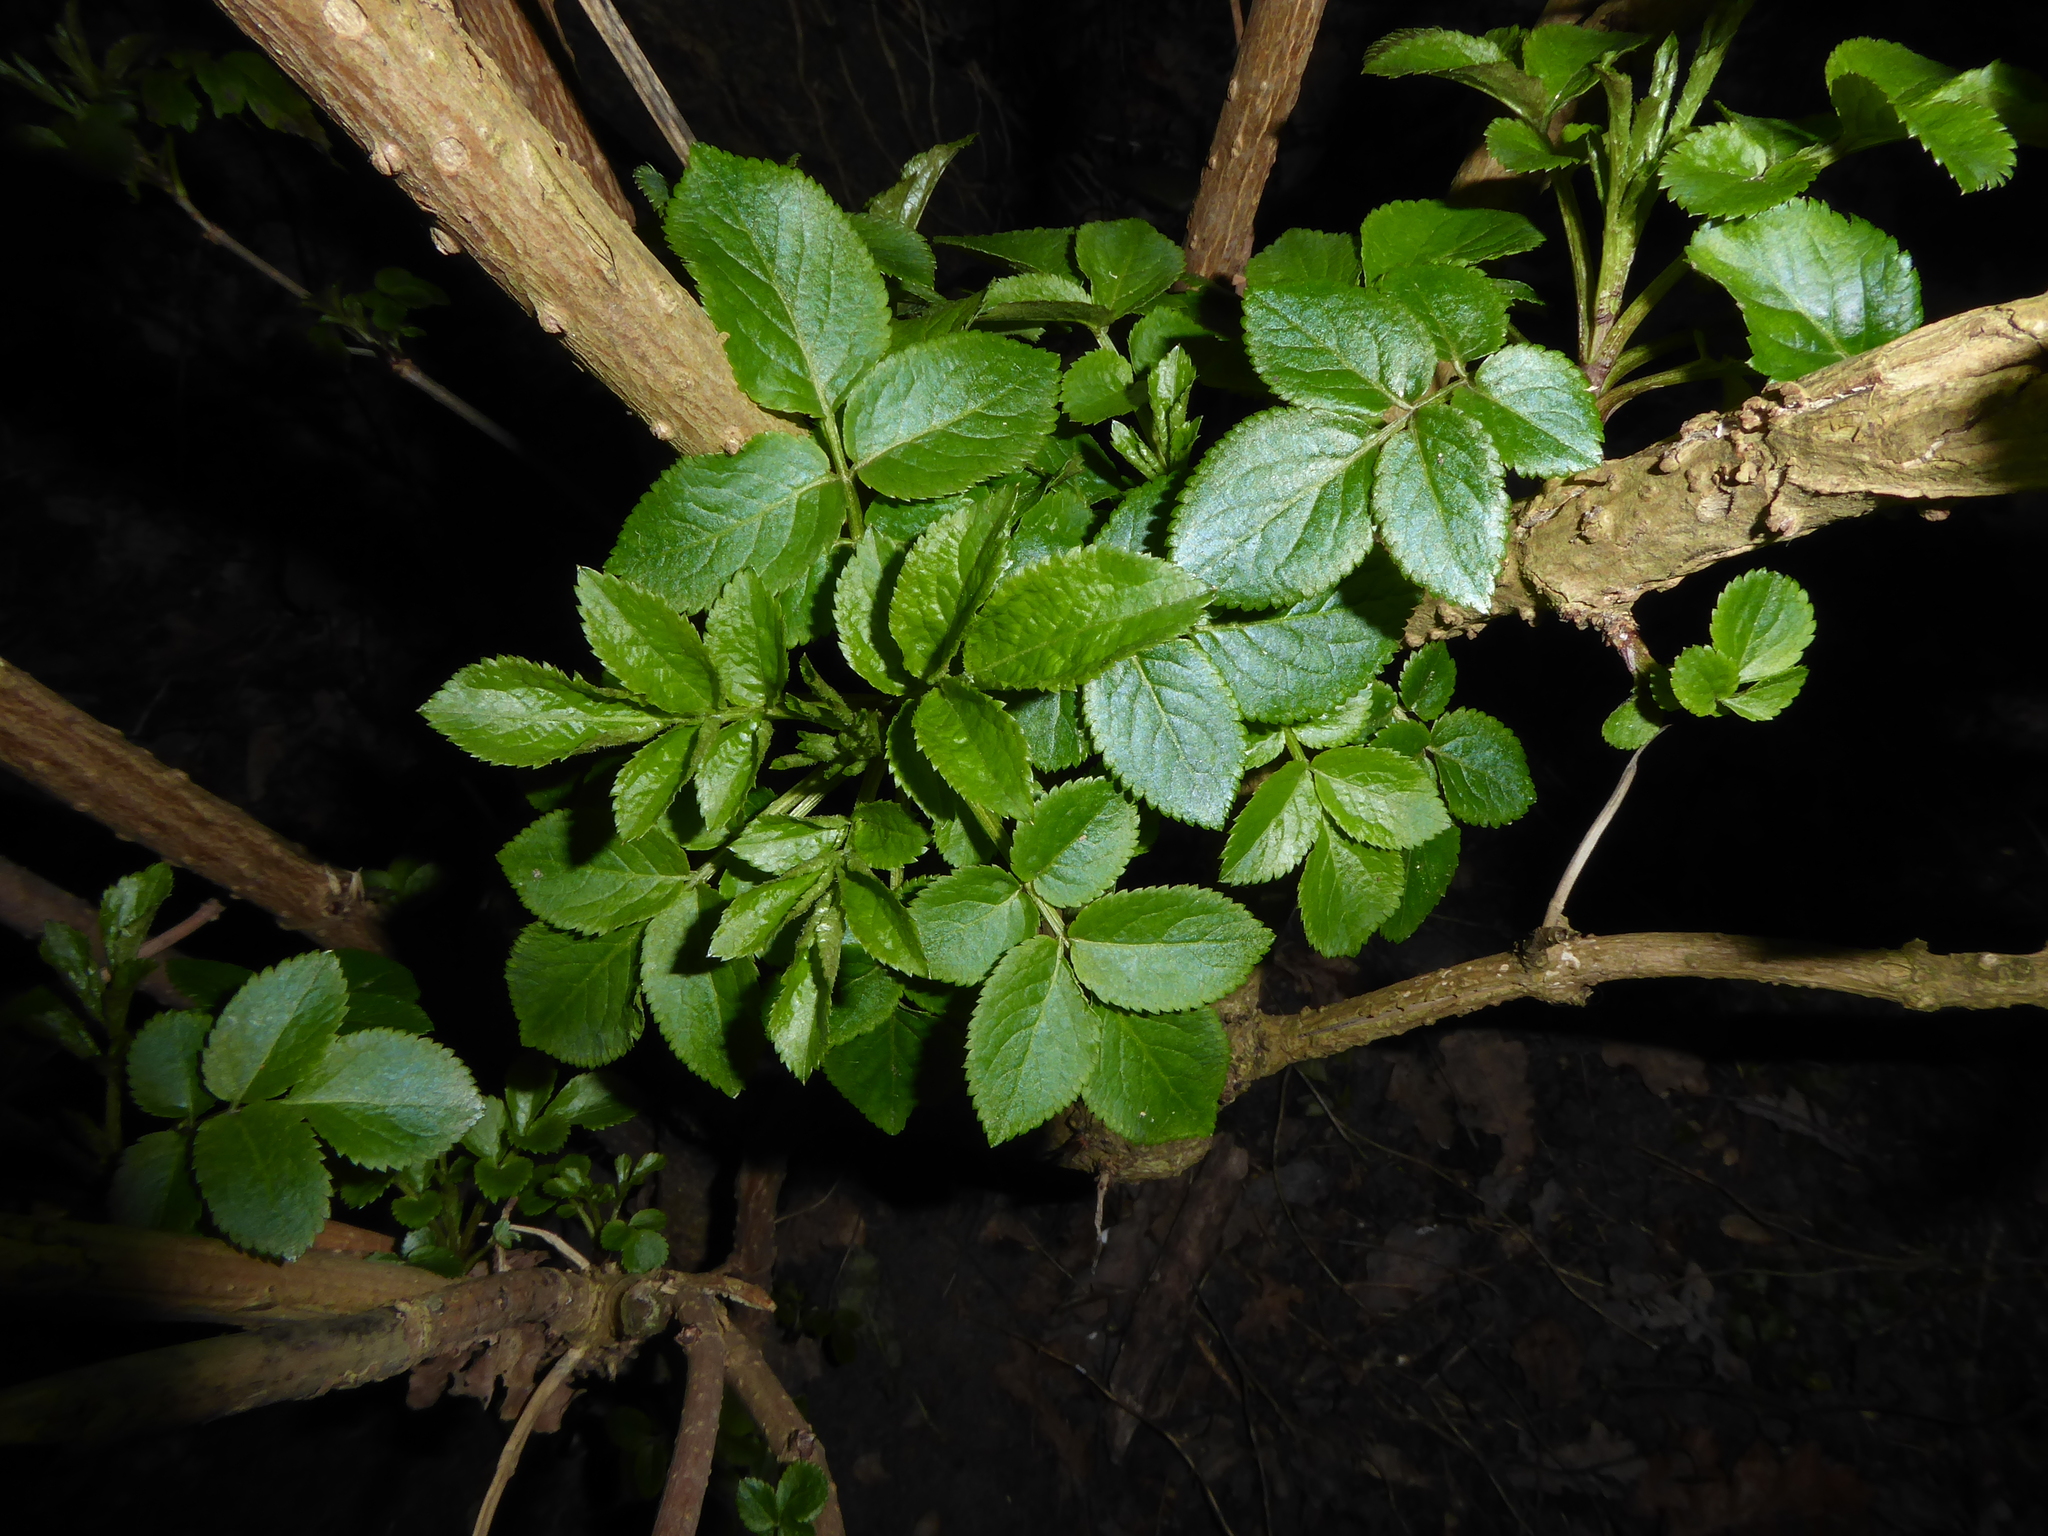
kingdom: Plantae
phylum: Tracheophyta
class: Magnoliopsida
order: Dipsacales
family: Viburnaceae
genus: Sambucus
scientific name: Sambucus nigra
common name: Elder
